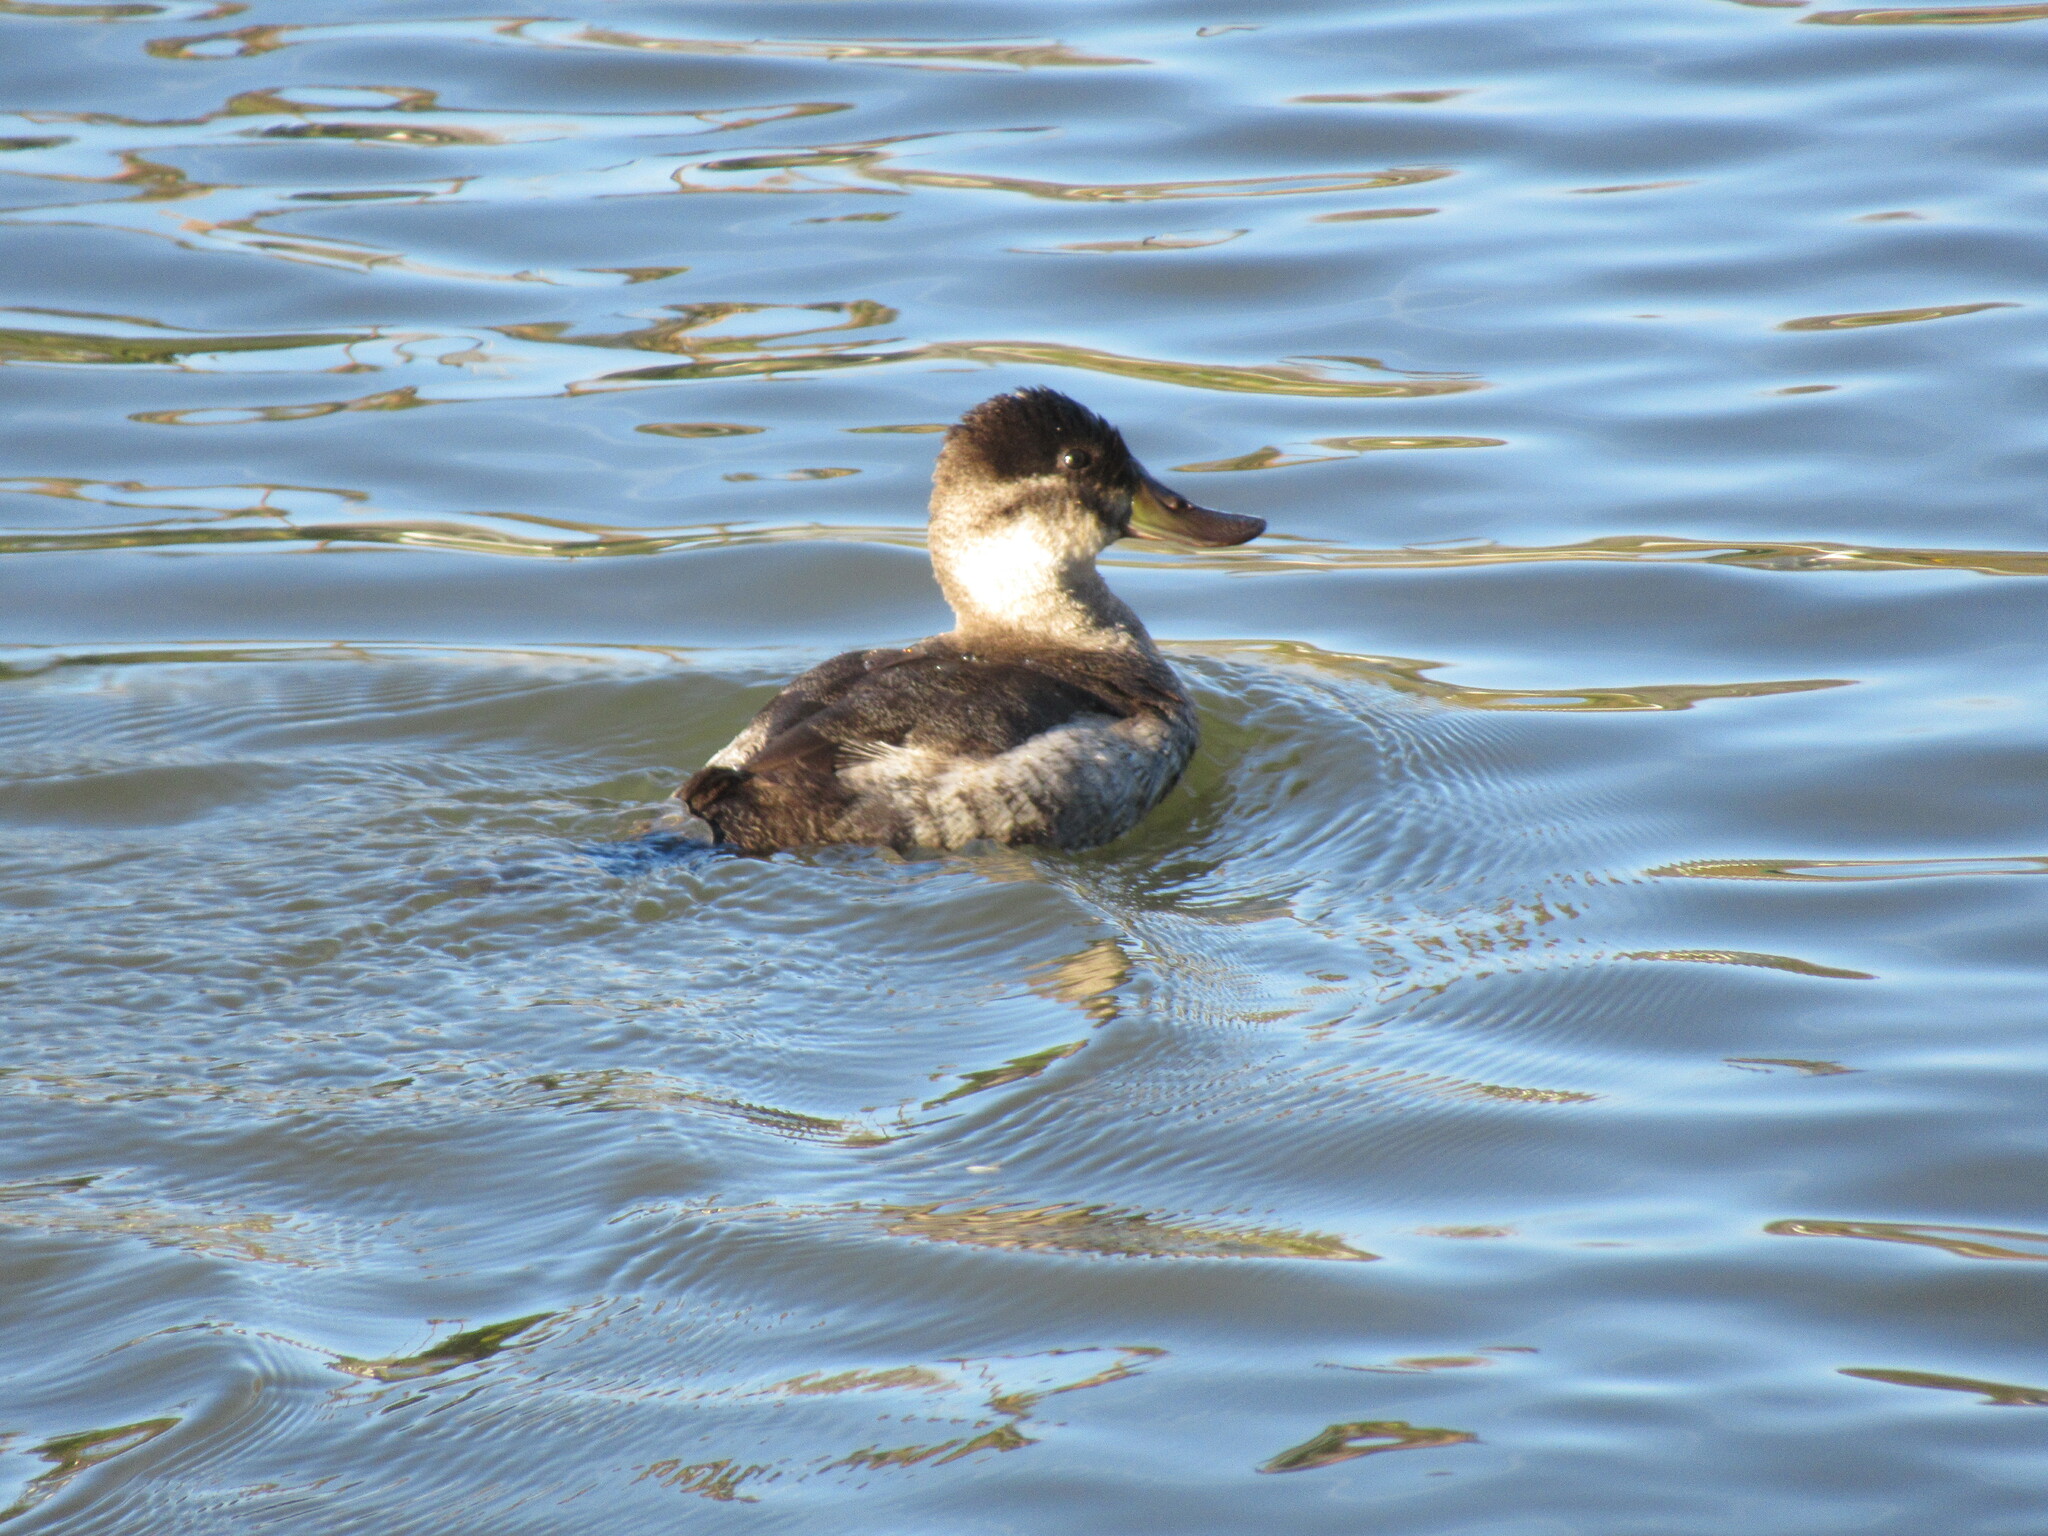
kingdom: Animalia
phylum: Chordata
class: Aves
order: Anseriformes
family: Anatidae
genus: Oxyura
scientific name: Oxyura jamaicensis
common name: Ruddy duck
